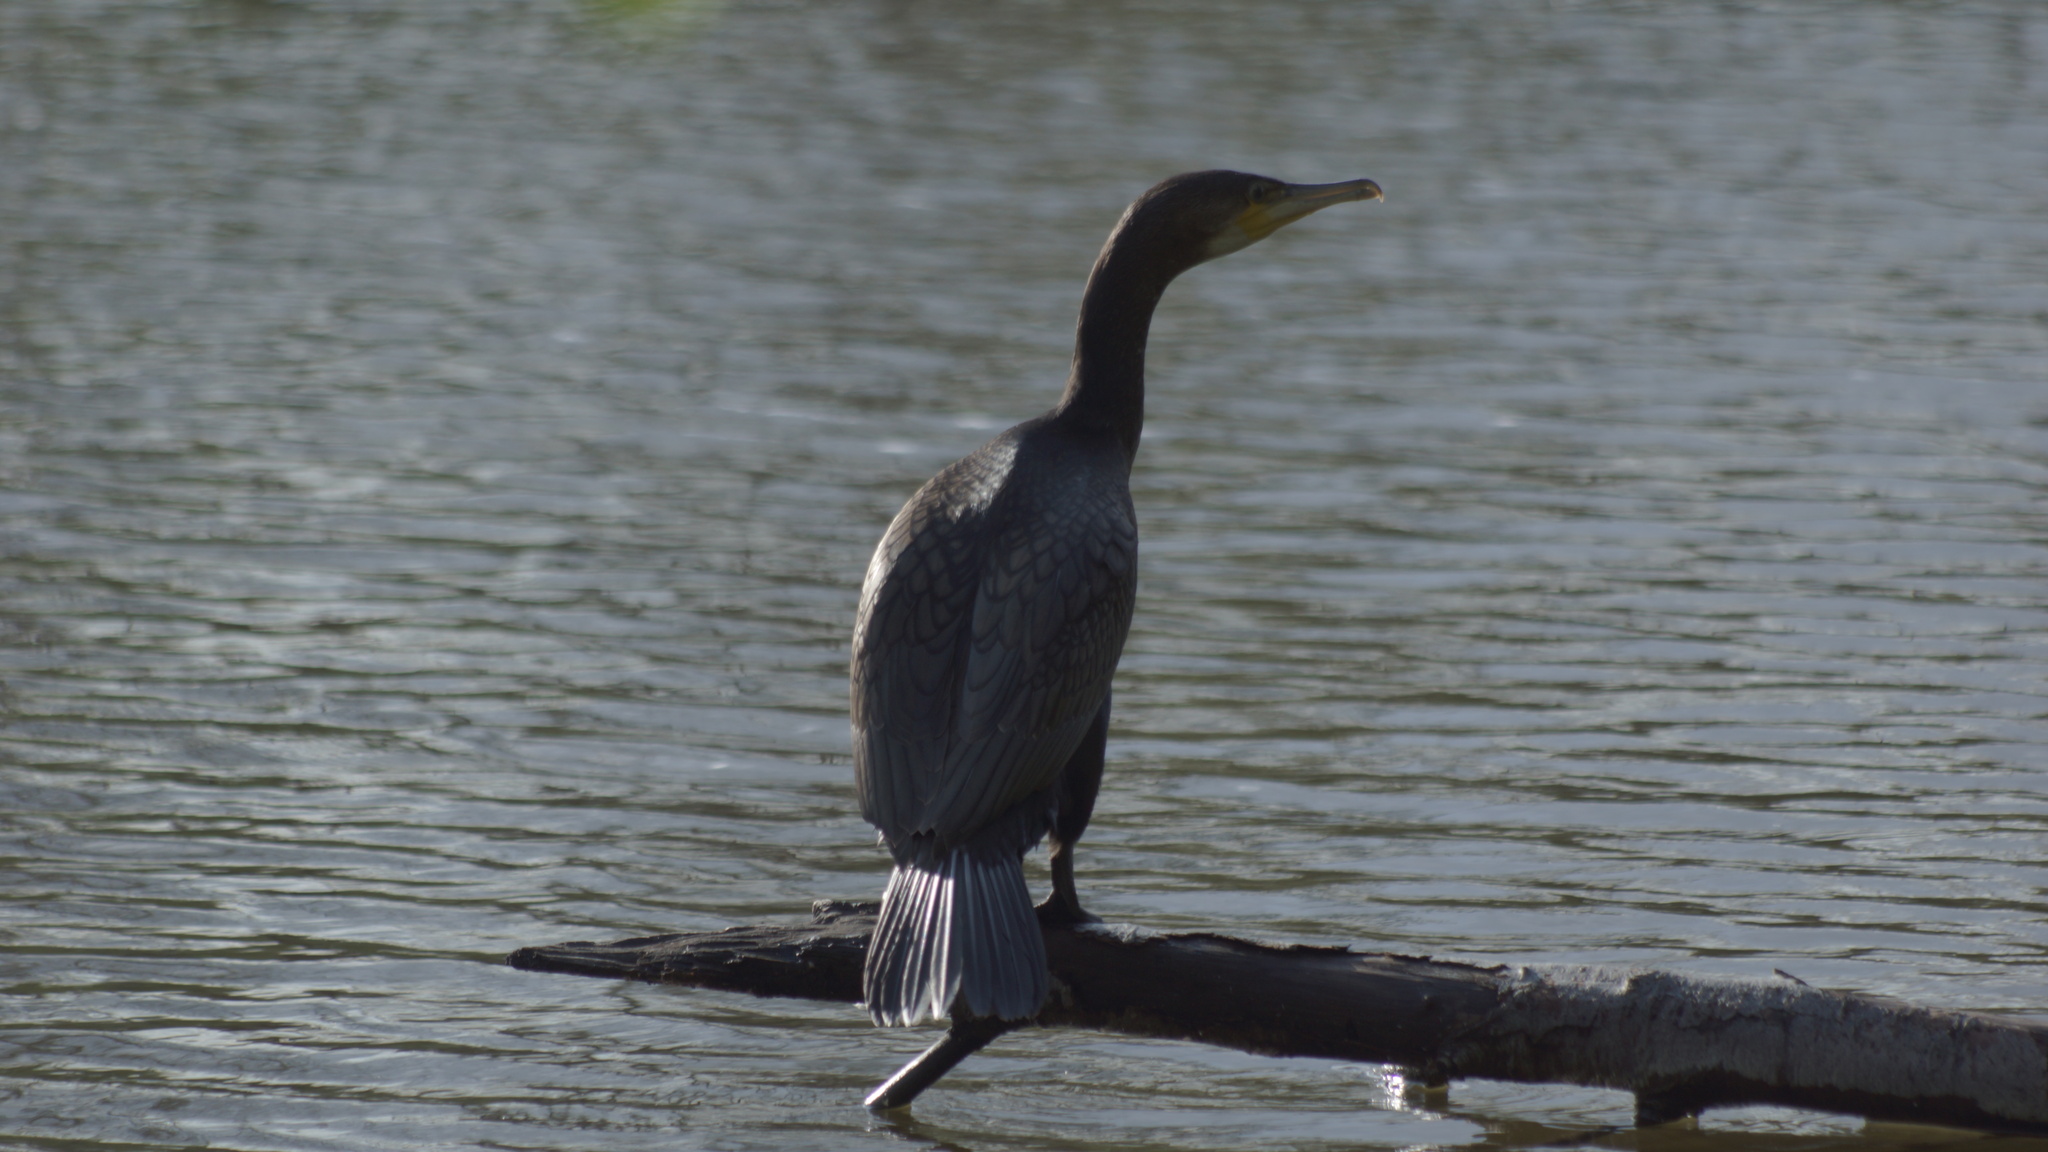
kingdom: Animalia
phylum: Chordata
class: Aves
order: Suliformes
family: Phalacrocoracidae
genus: Phalacrocorax
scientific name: Phalacrocorax carbo
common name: Great cormorant
